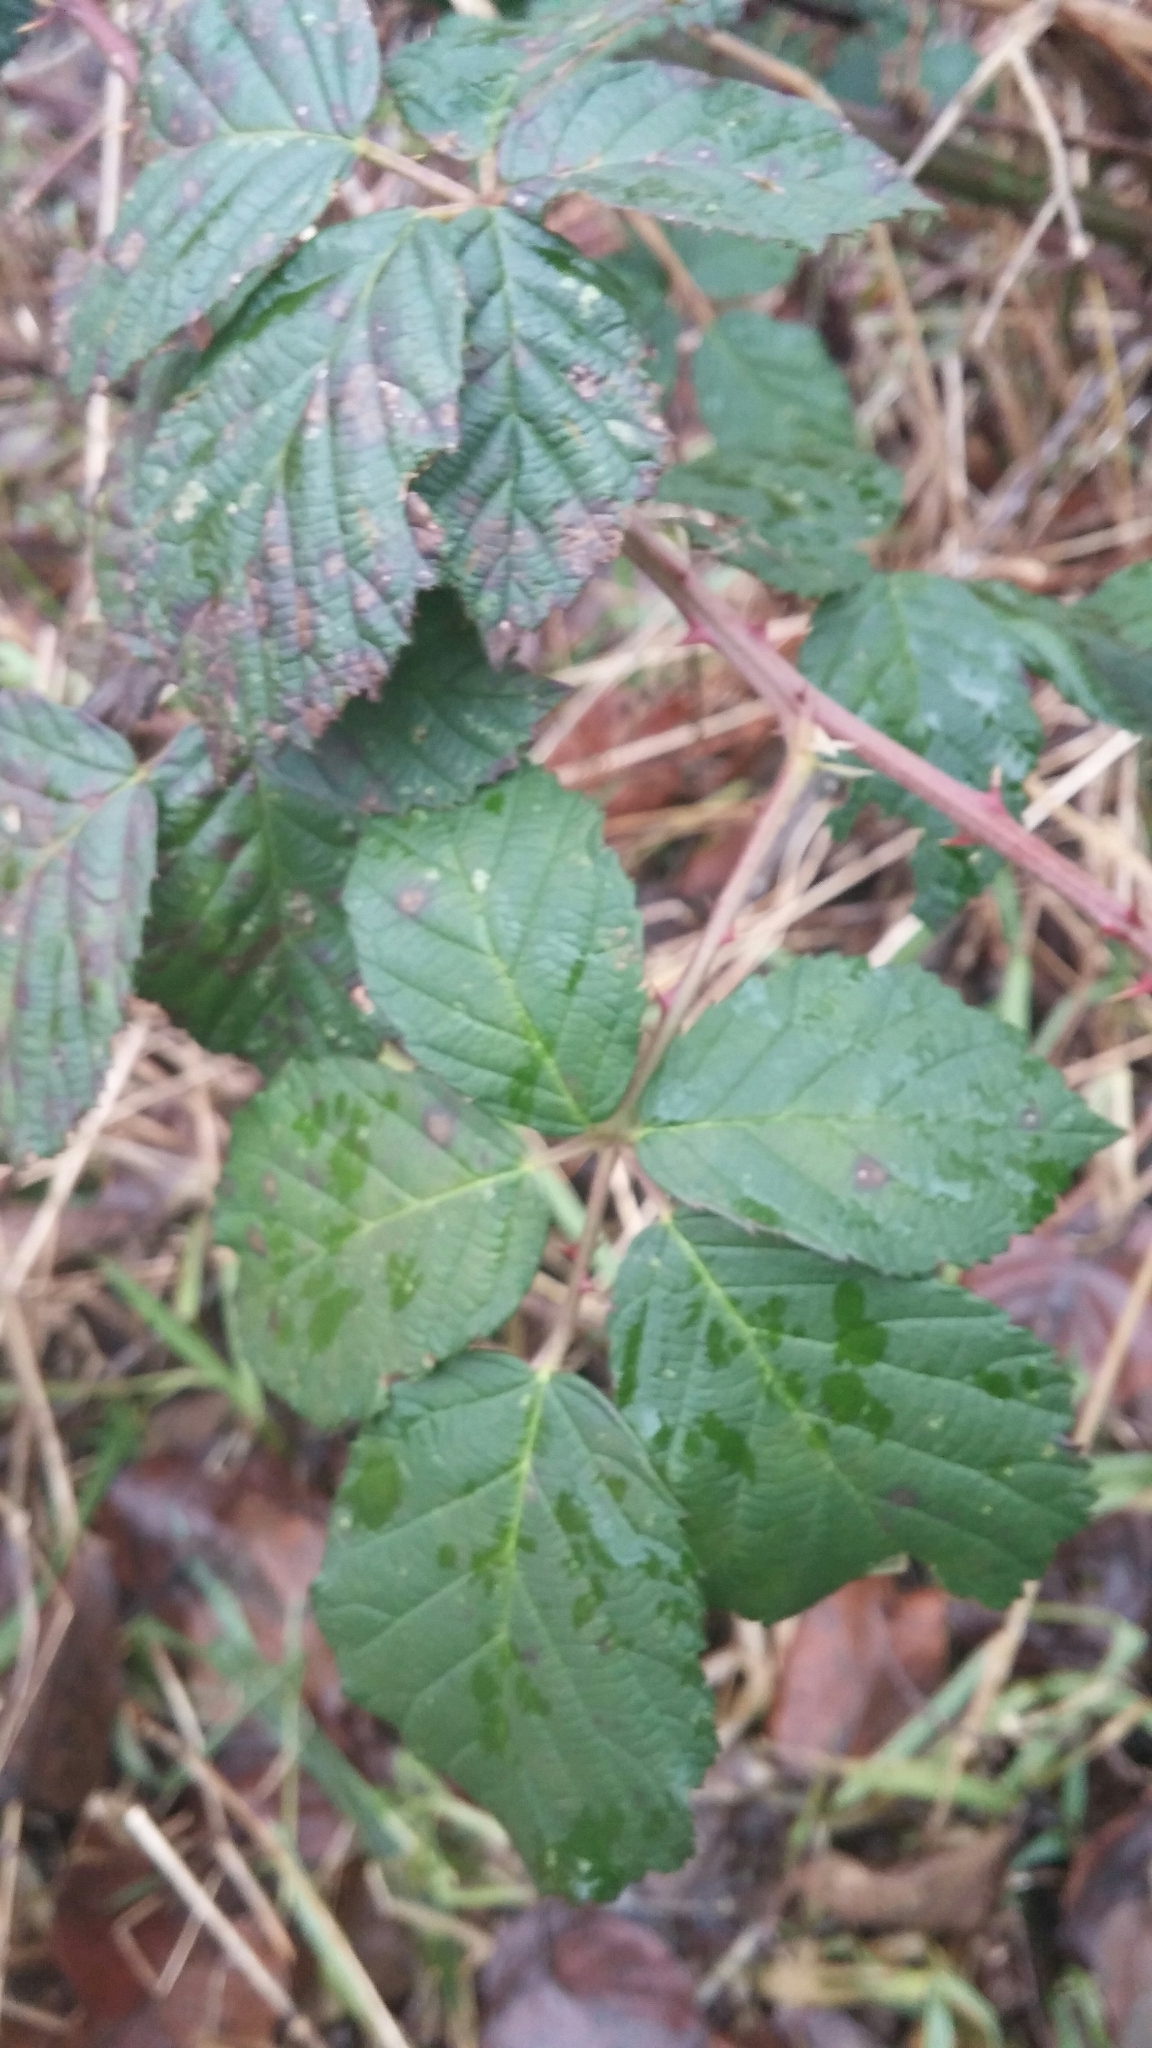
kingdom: Plantae
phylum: Tracheophyta
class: Magnoliopsida
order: Rosales
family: Rosaceae
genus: Rubus
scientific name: Rubus armeniacus
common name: Himalayan blackberry
